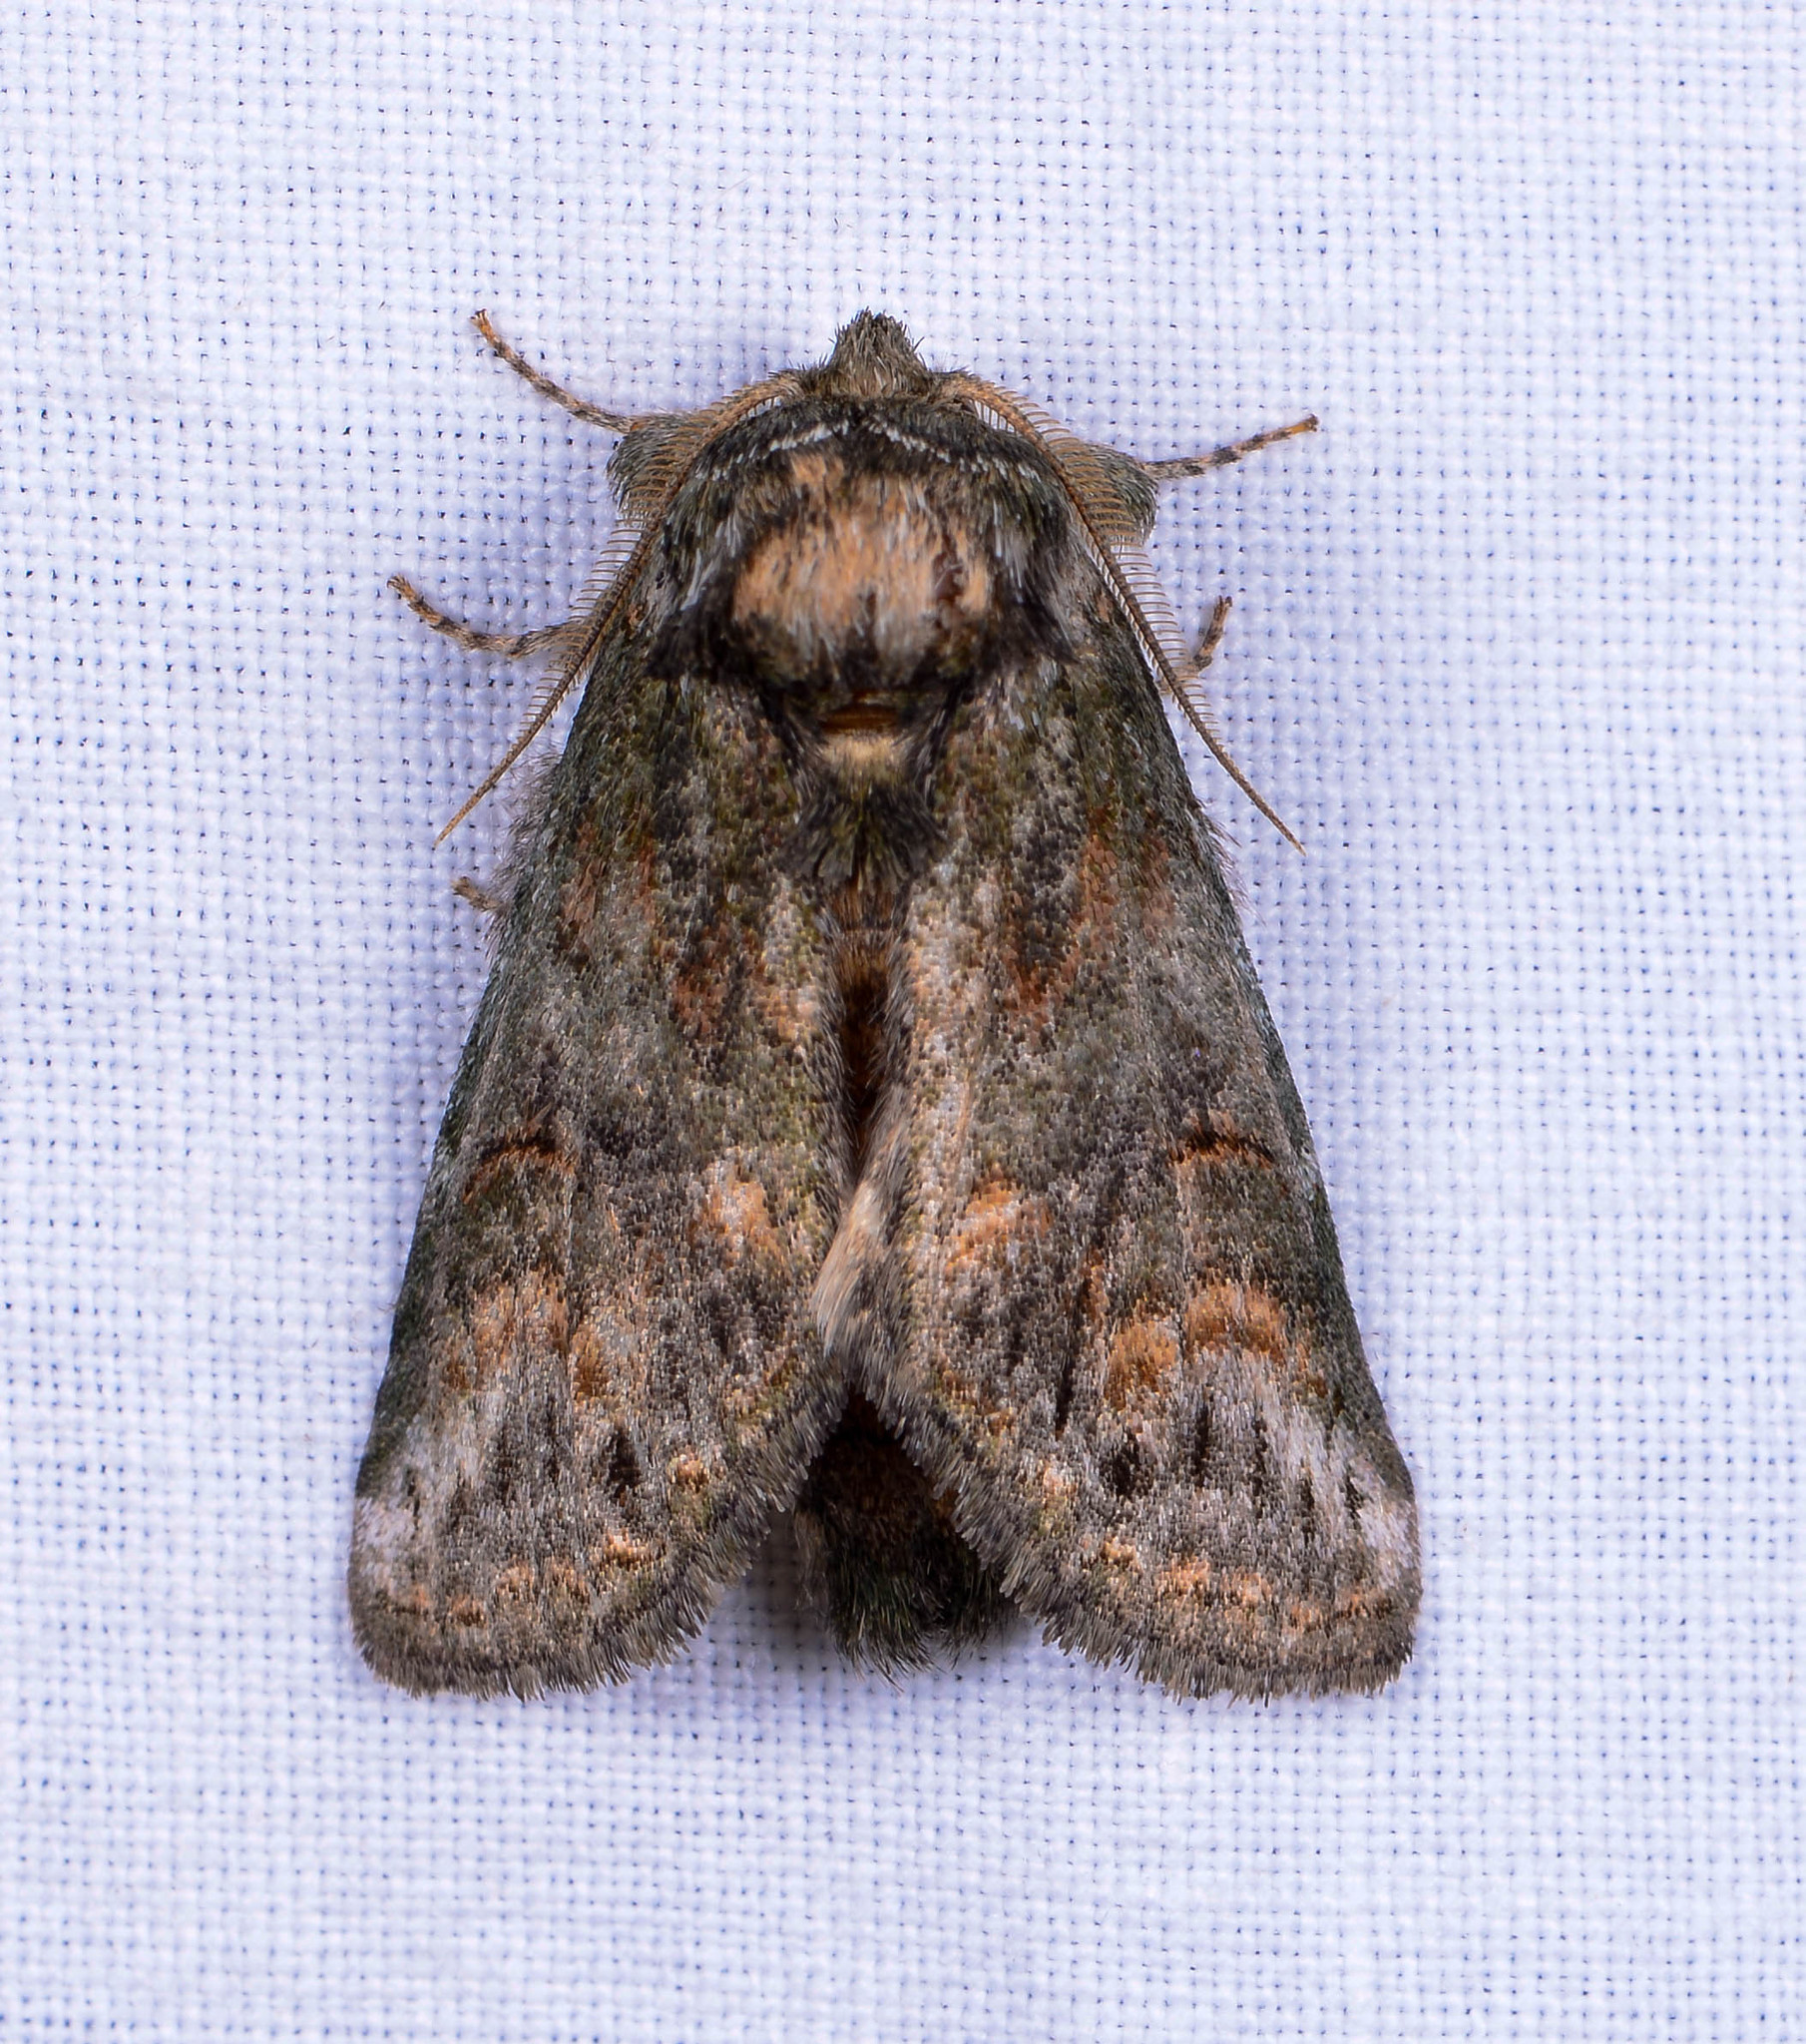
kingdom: Animalia
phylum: Arthropoda
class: Insecta
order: Lepidoptera
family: Notodontidae
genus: Rifargia
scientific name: Rifargia
